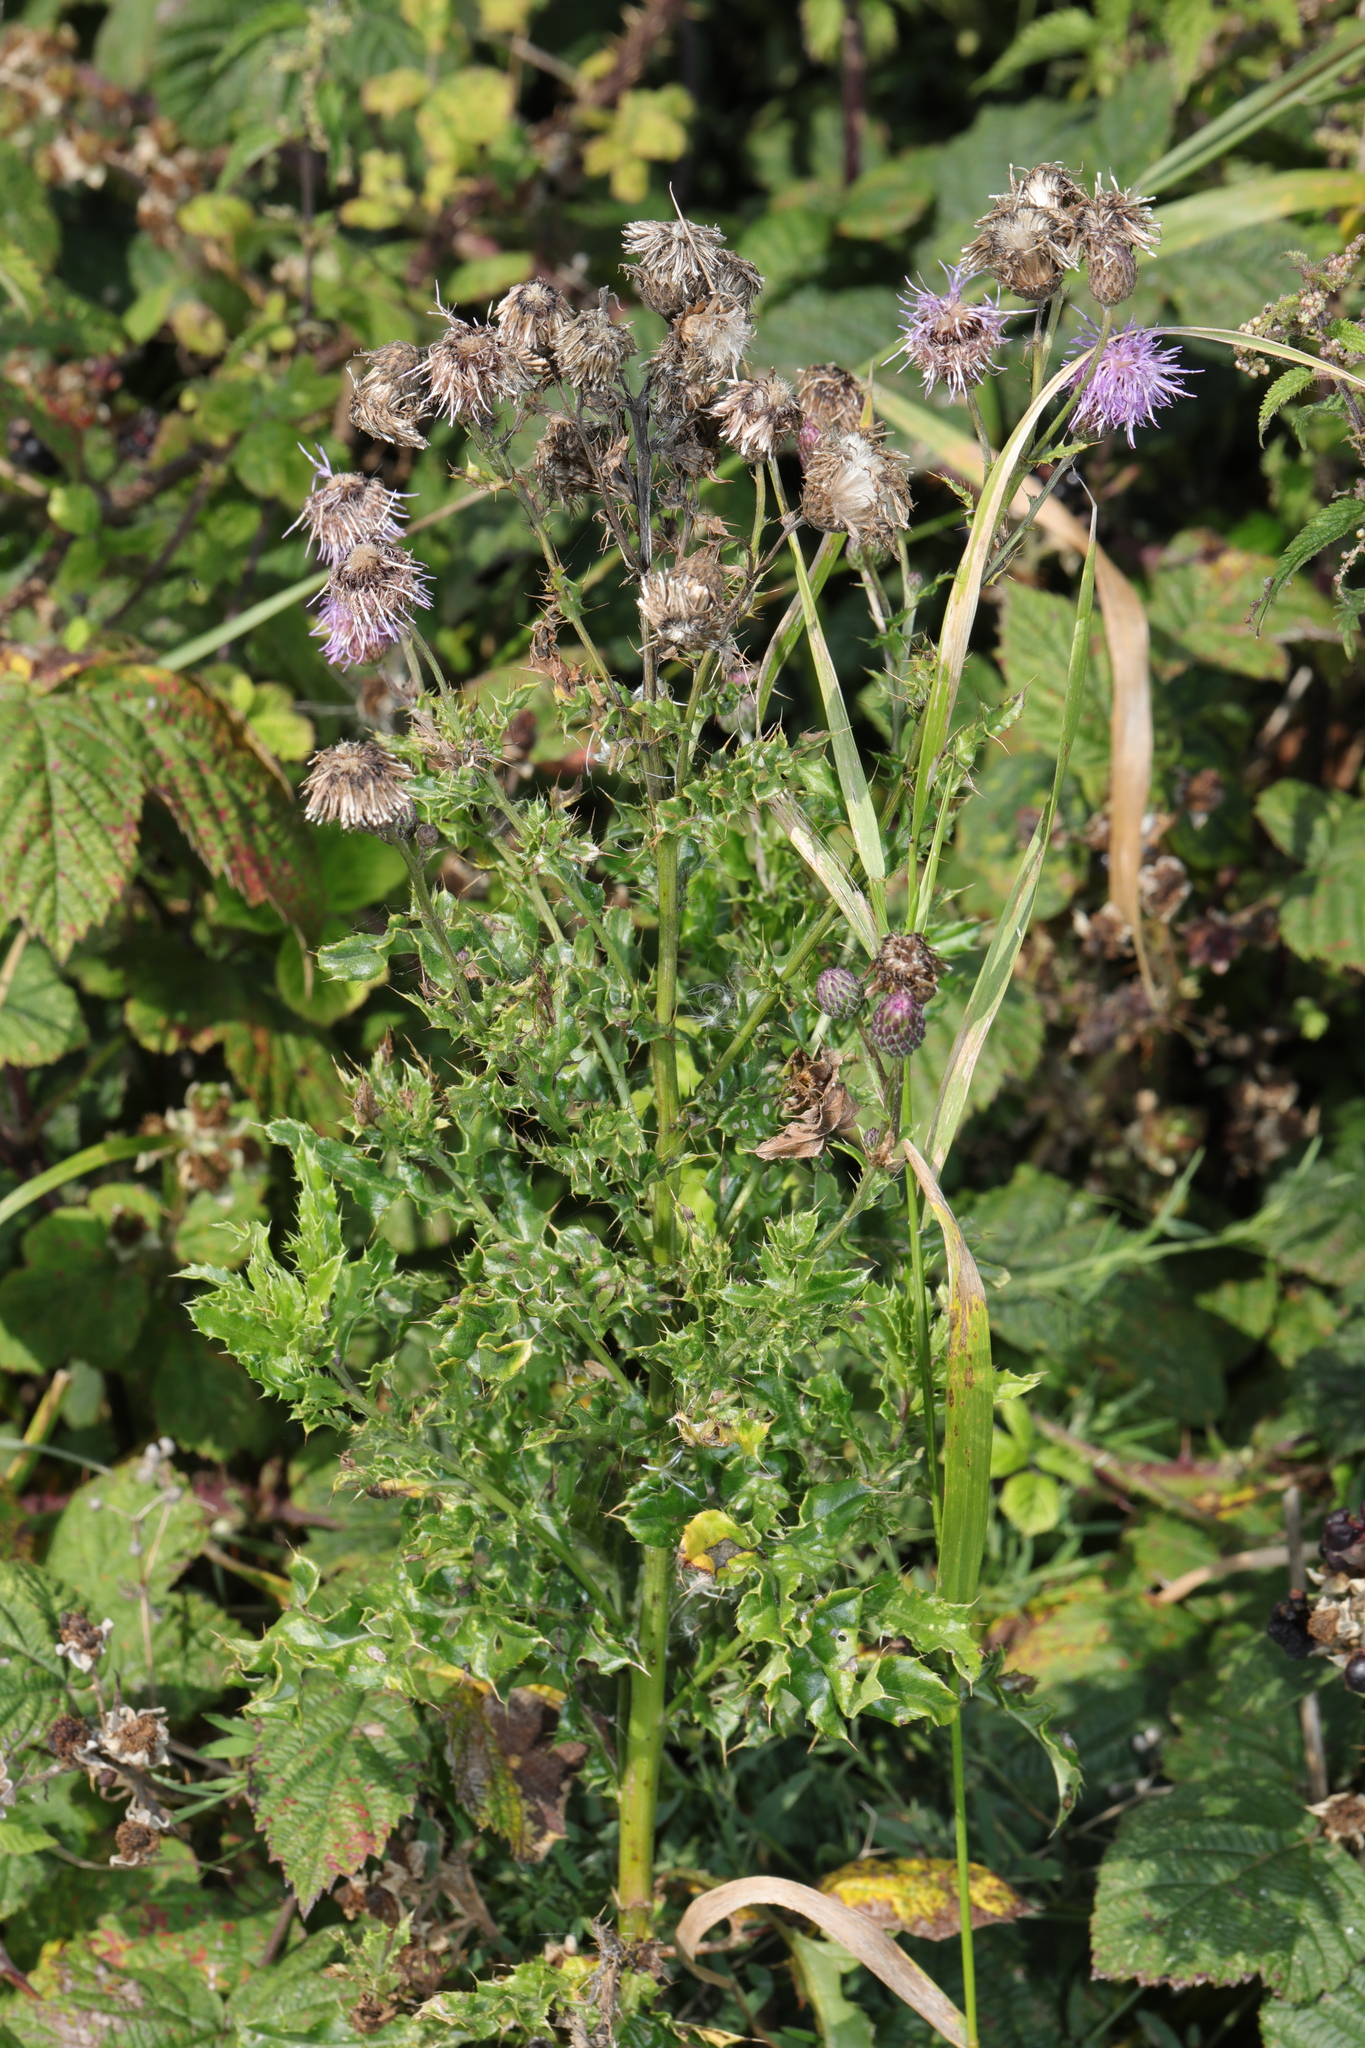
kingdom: Plantae
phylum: Tracheophyta
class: Magnoliopsida
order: Asterales
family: Asteraceae
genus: Cirsium
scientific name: Cirsium arvense
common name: Creeping thistle
